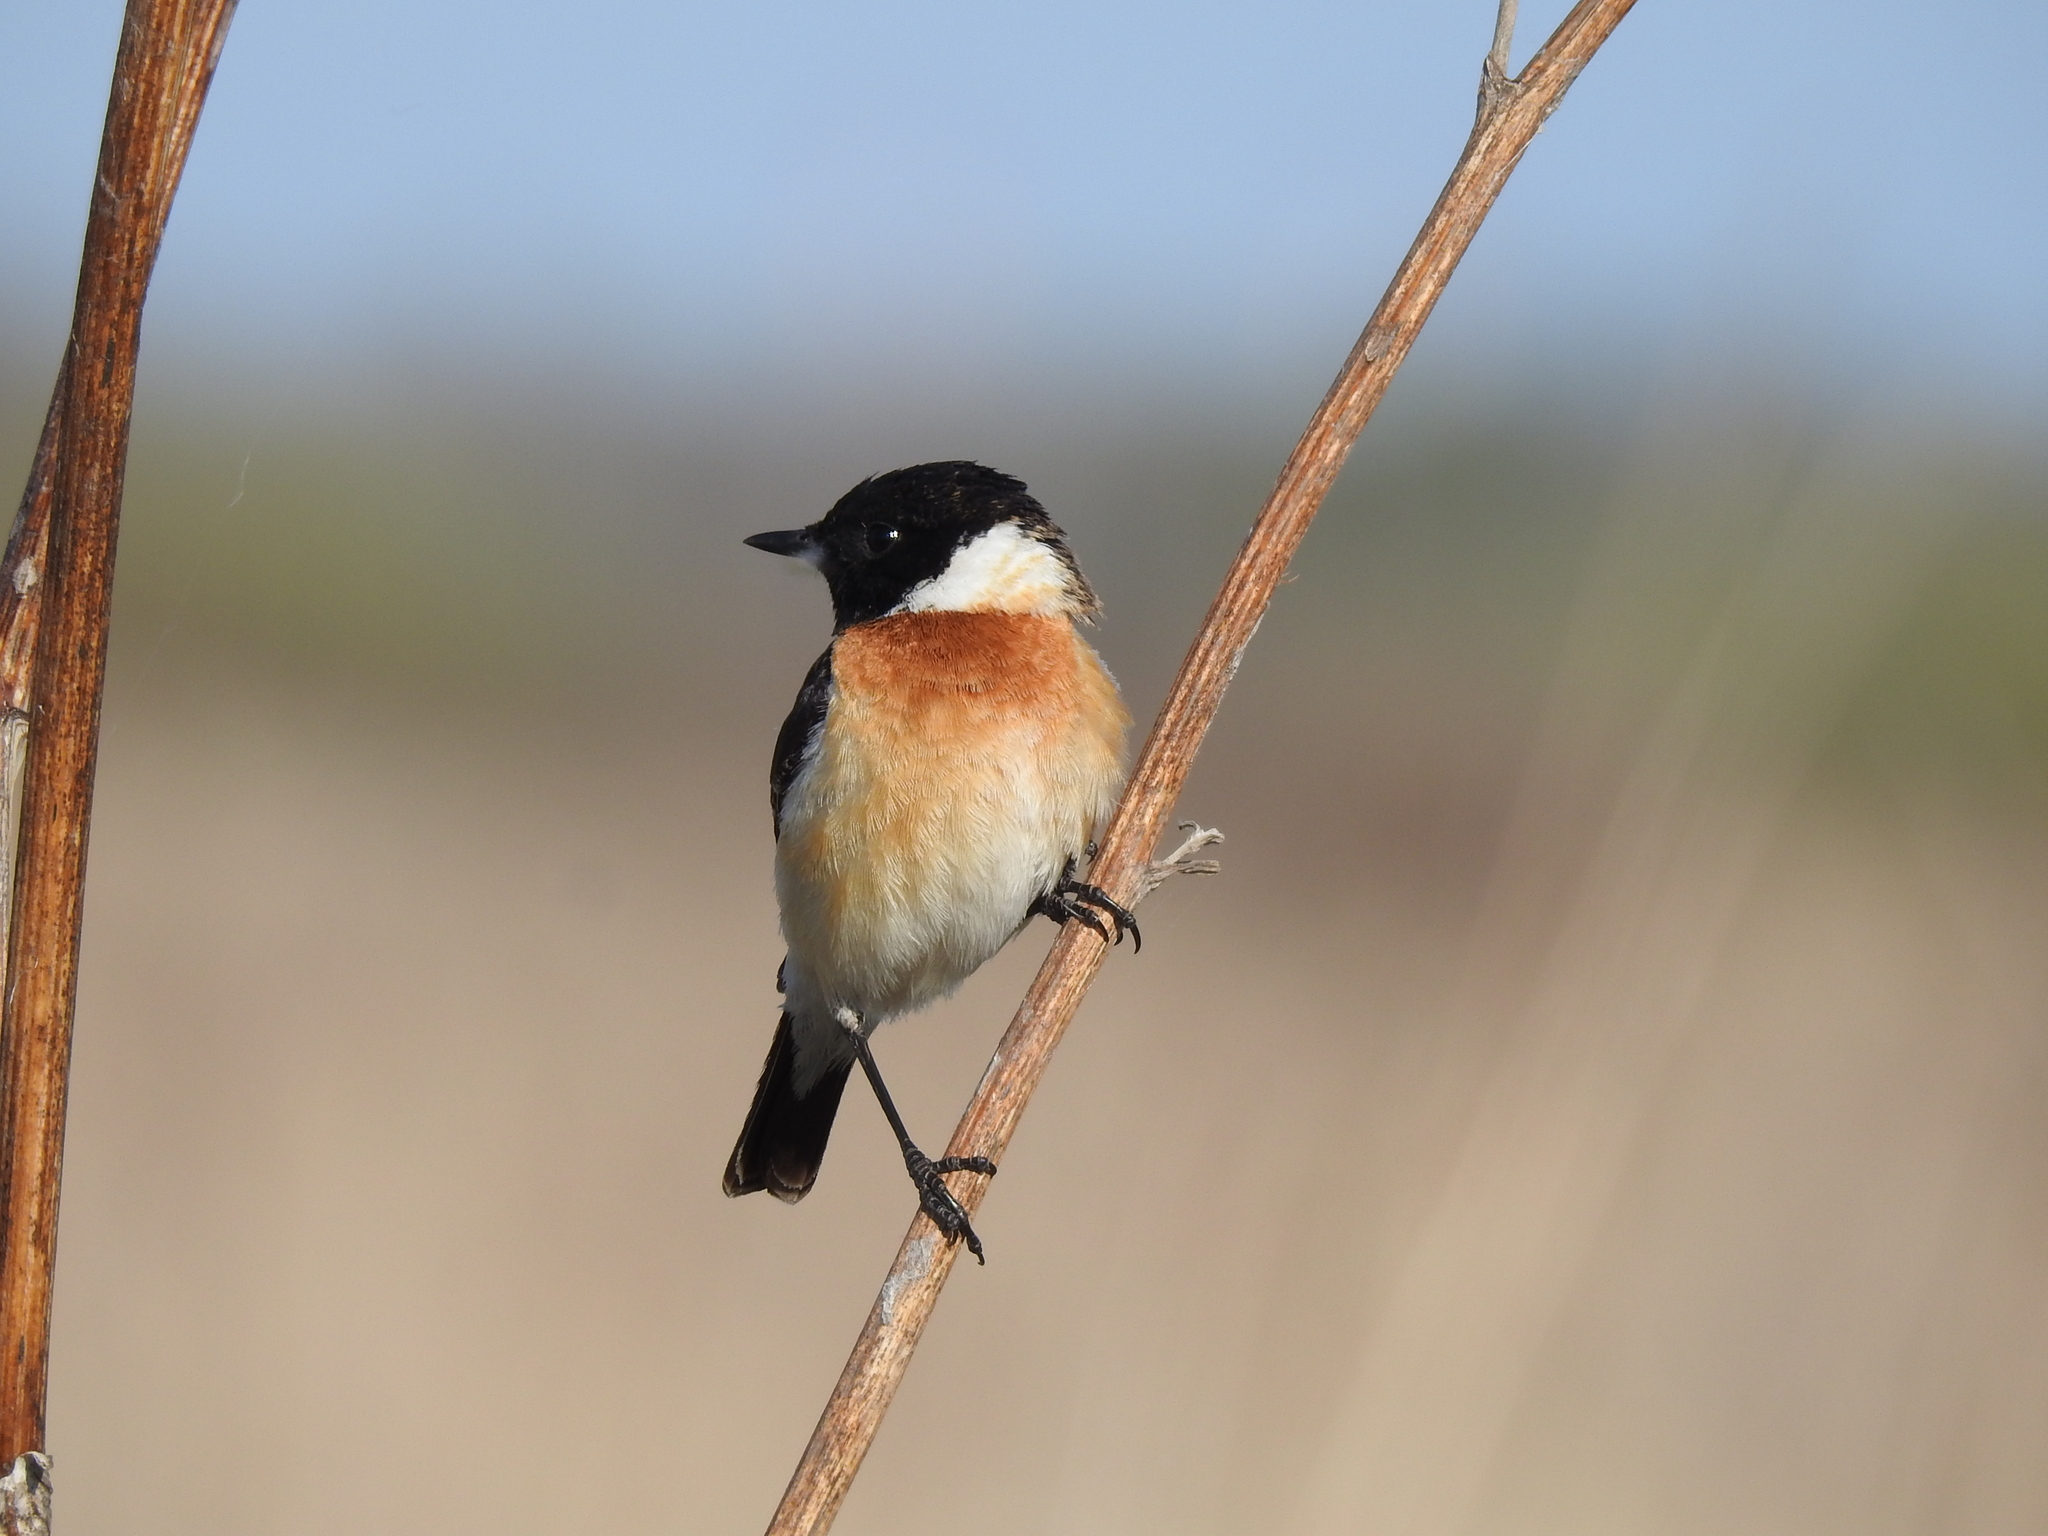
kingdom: Animalia
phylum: Chordata
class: Aves
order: Passeriformes
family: Muscicapidae
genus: Saxicola
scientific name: Saxicola maurus
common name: Siberian stonechat
